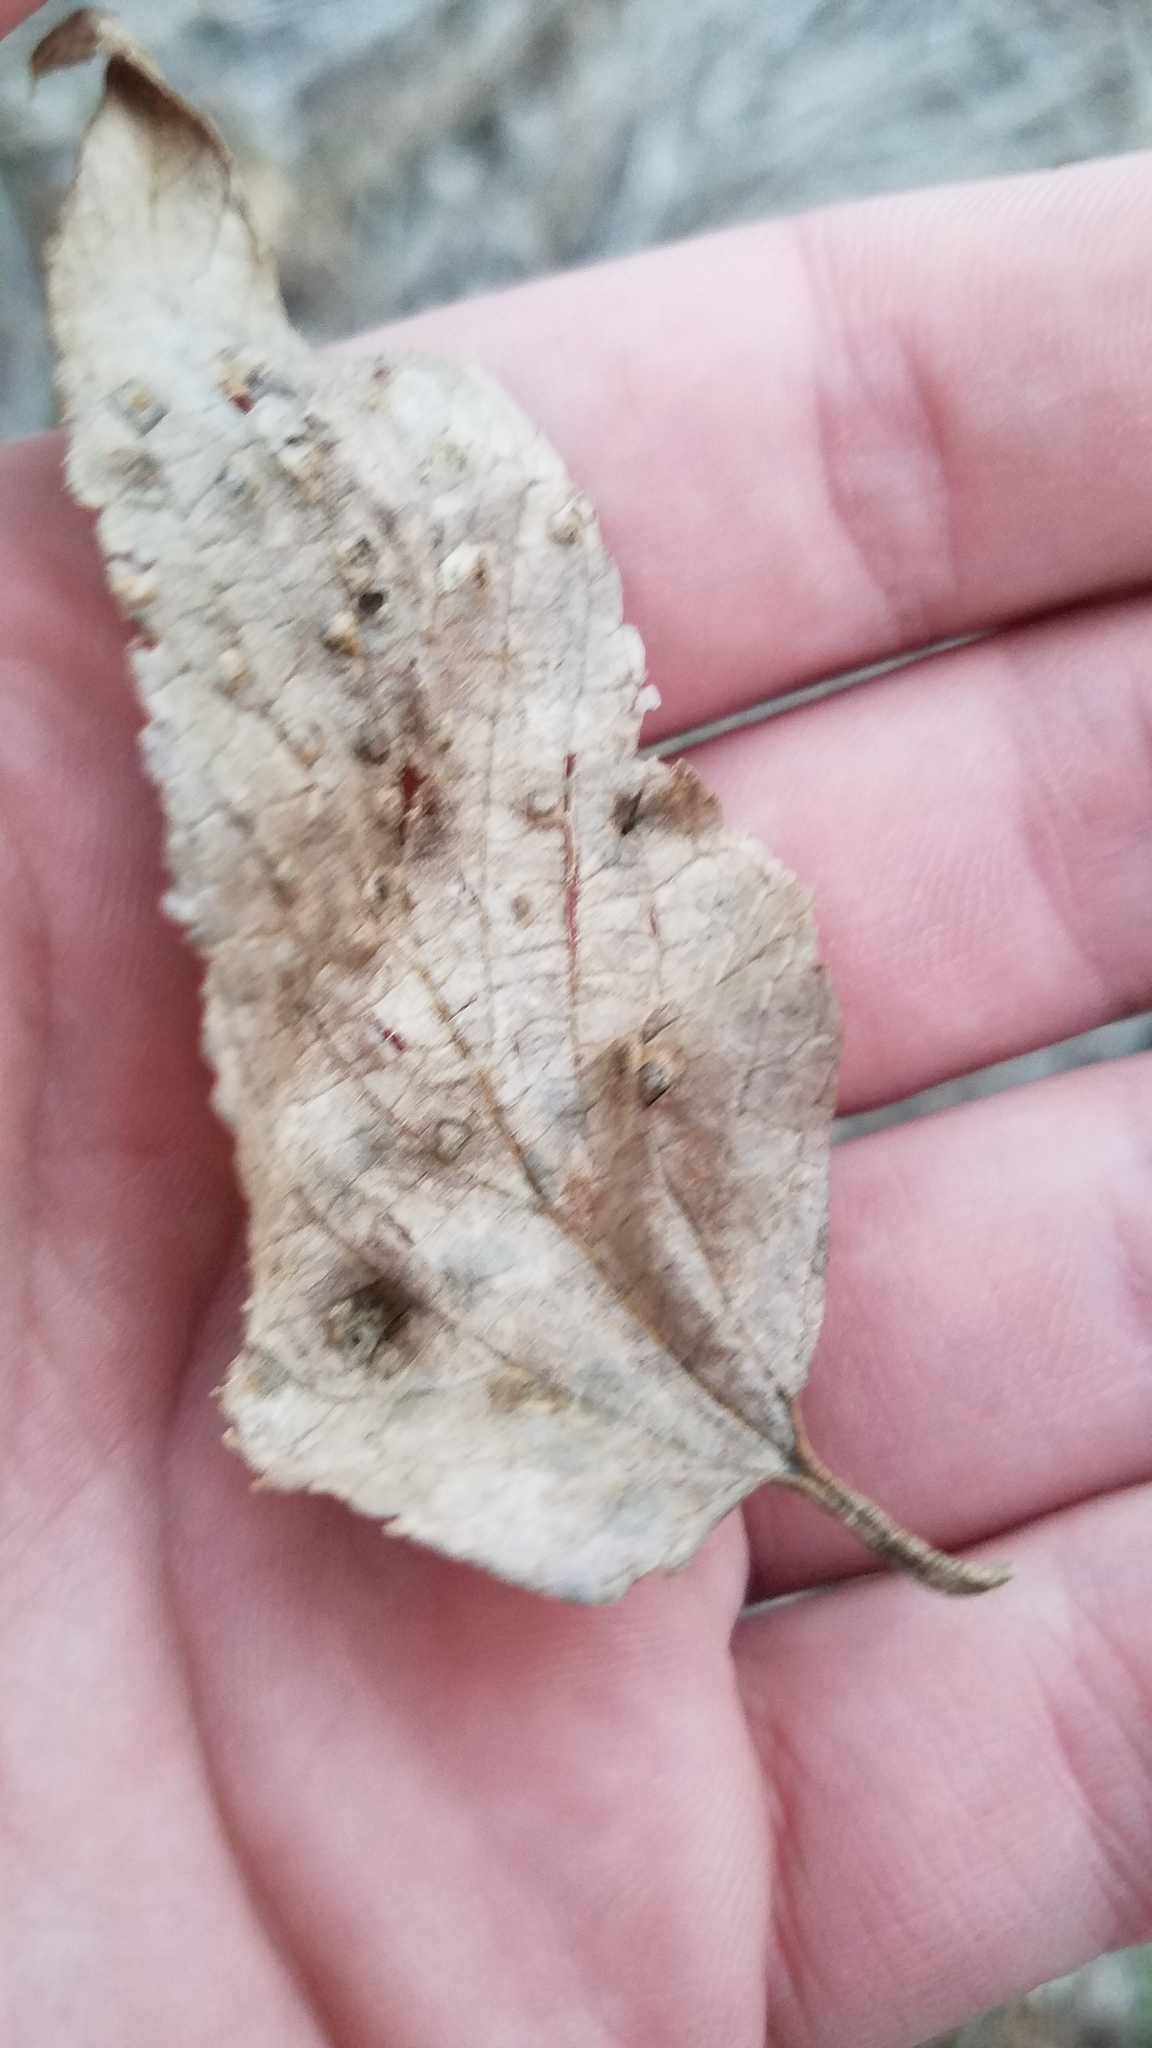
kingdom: Animalia
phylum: Arthropoda
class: Insecta
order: Hemiptera
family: Aphalaridae
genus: Pachypsylla
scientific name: Pachypsylla celtidisvesicula
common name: Hackberry blister gall psyllid
